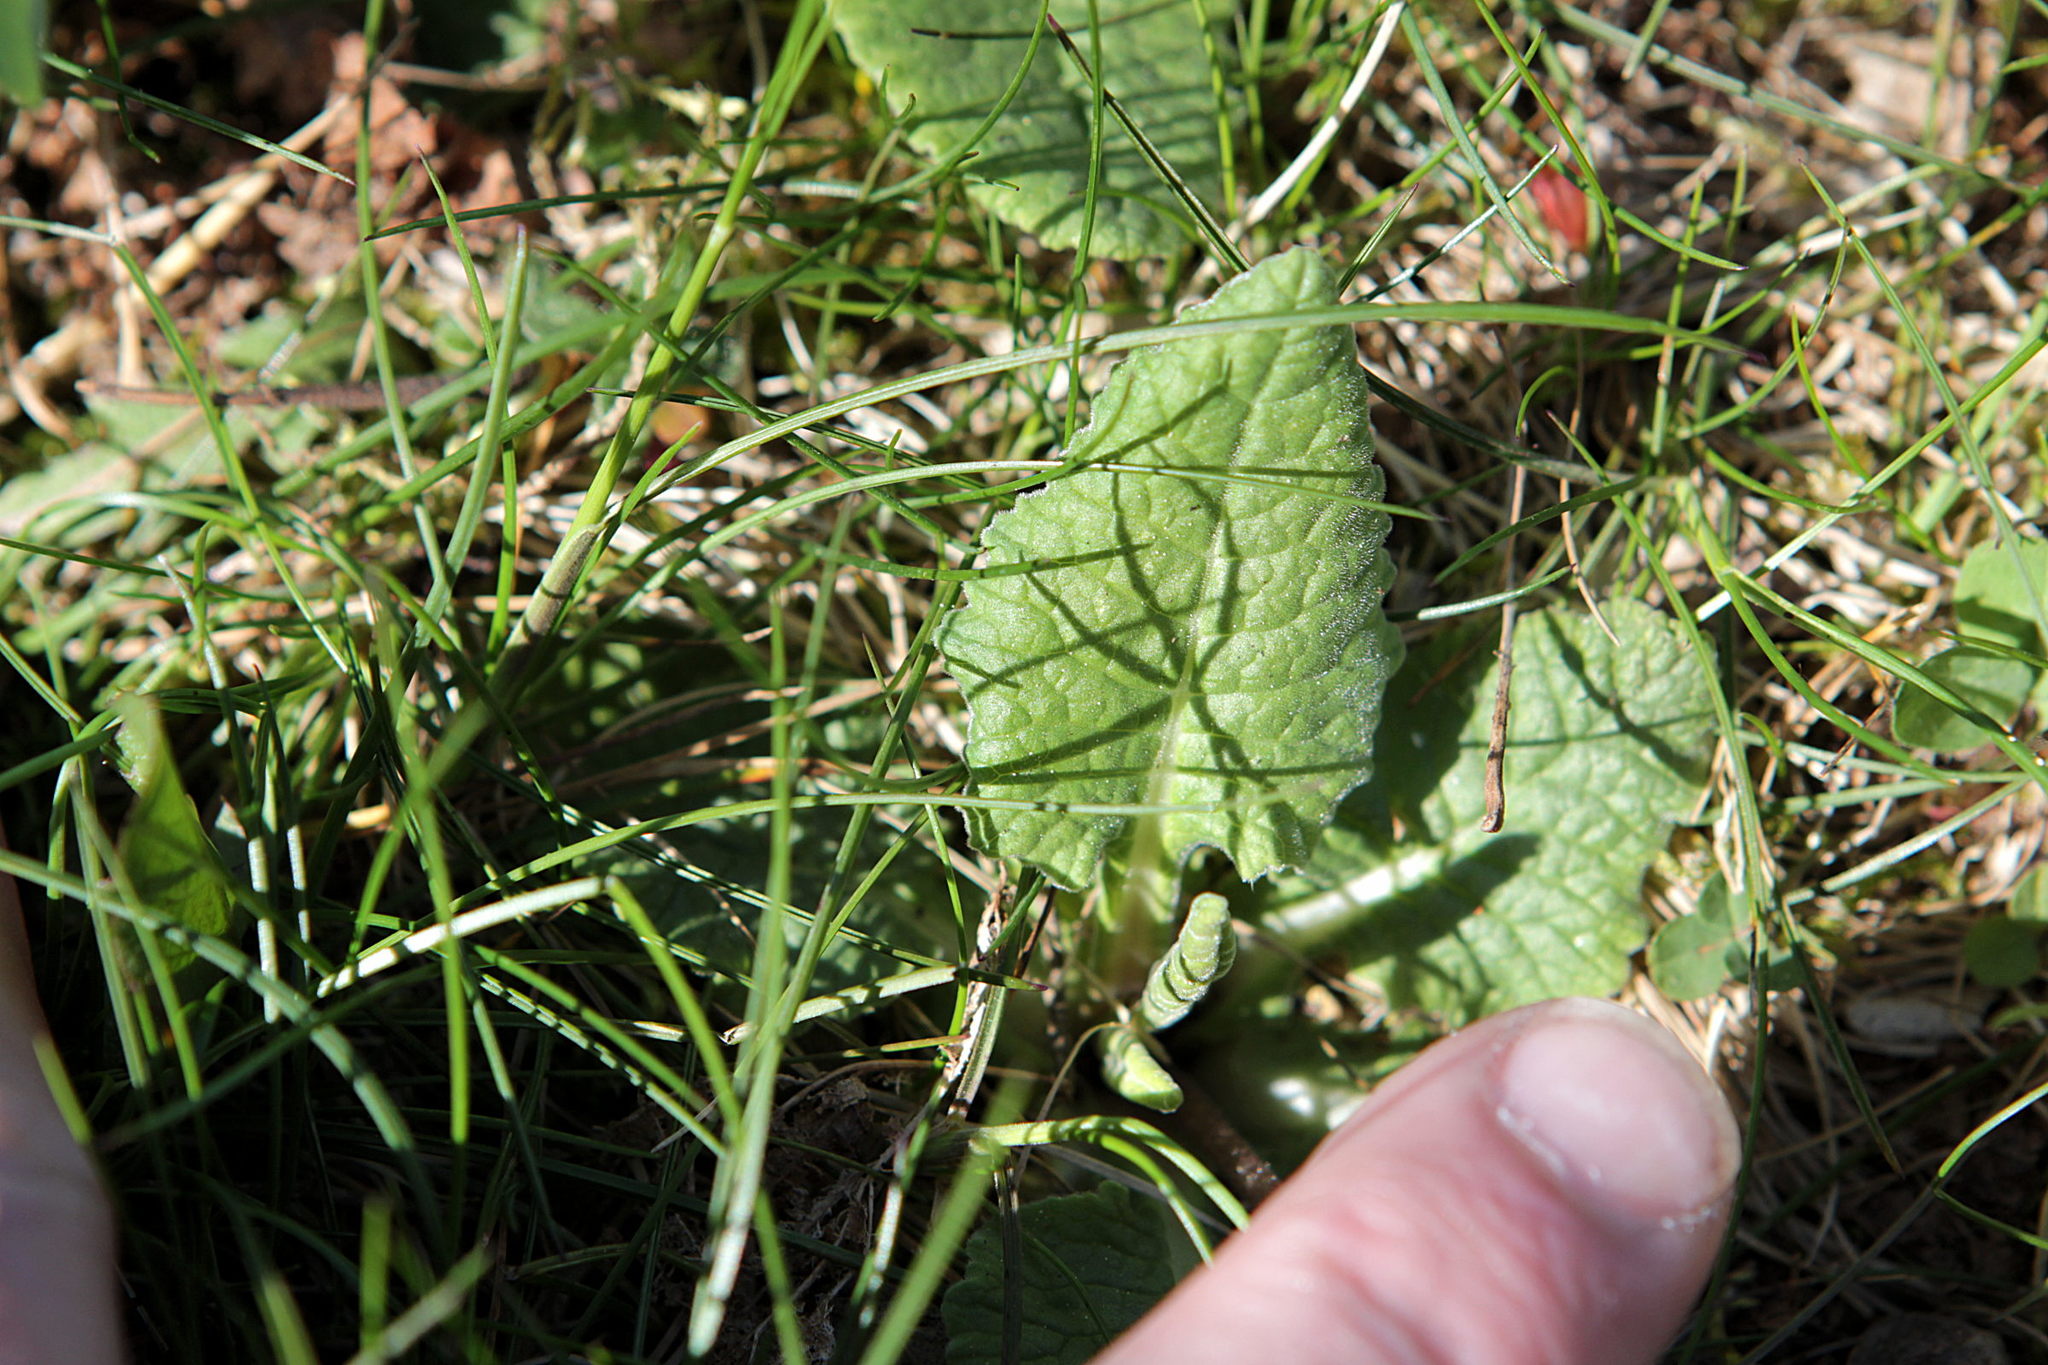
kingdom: Plantae
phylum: Tracheophyta
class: Magnoliopsida
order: Ericales
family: Primulaceae
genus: Primula
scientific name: Primula veris
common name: Cowslip
